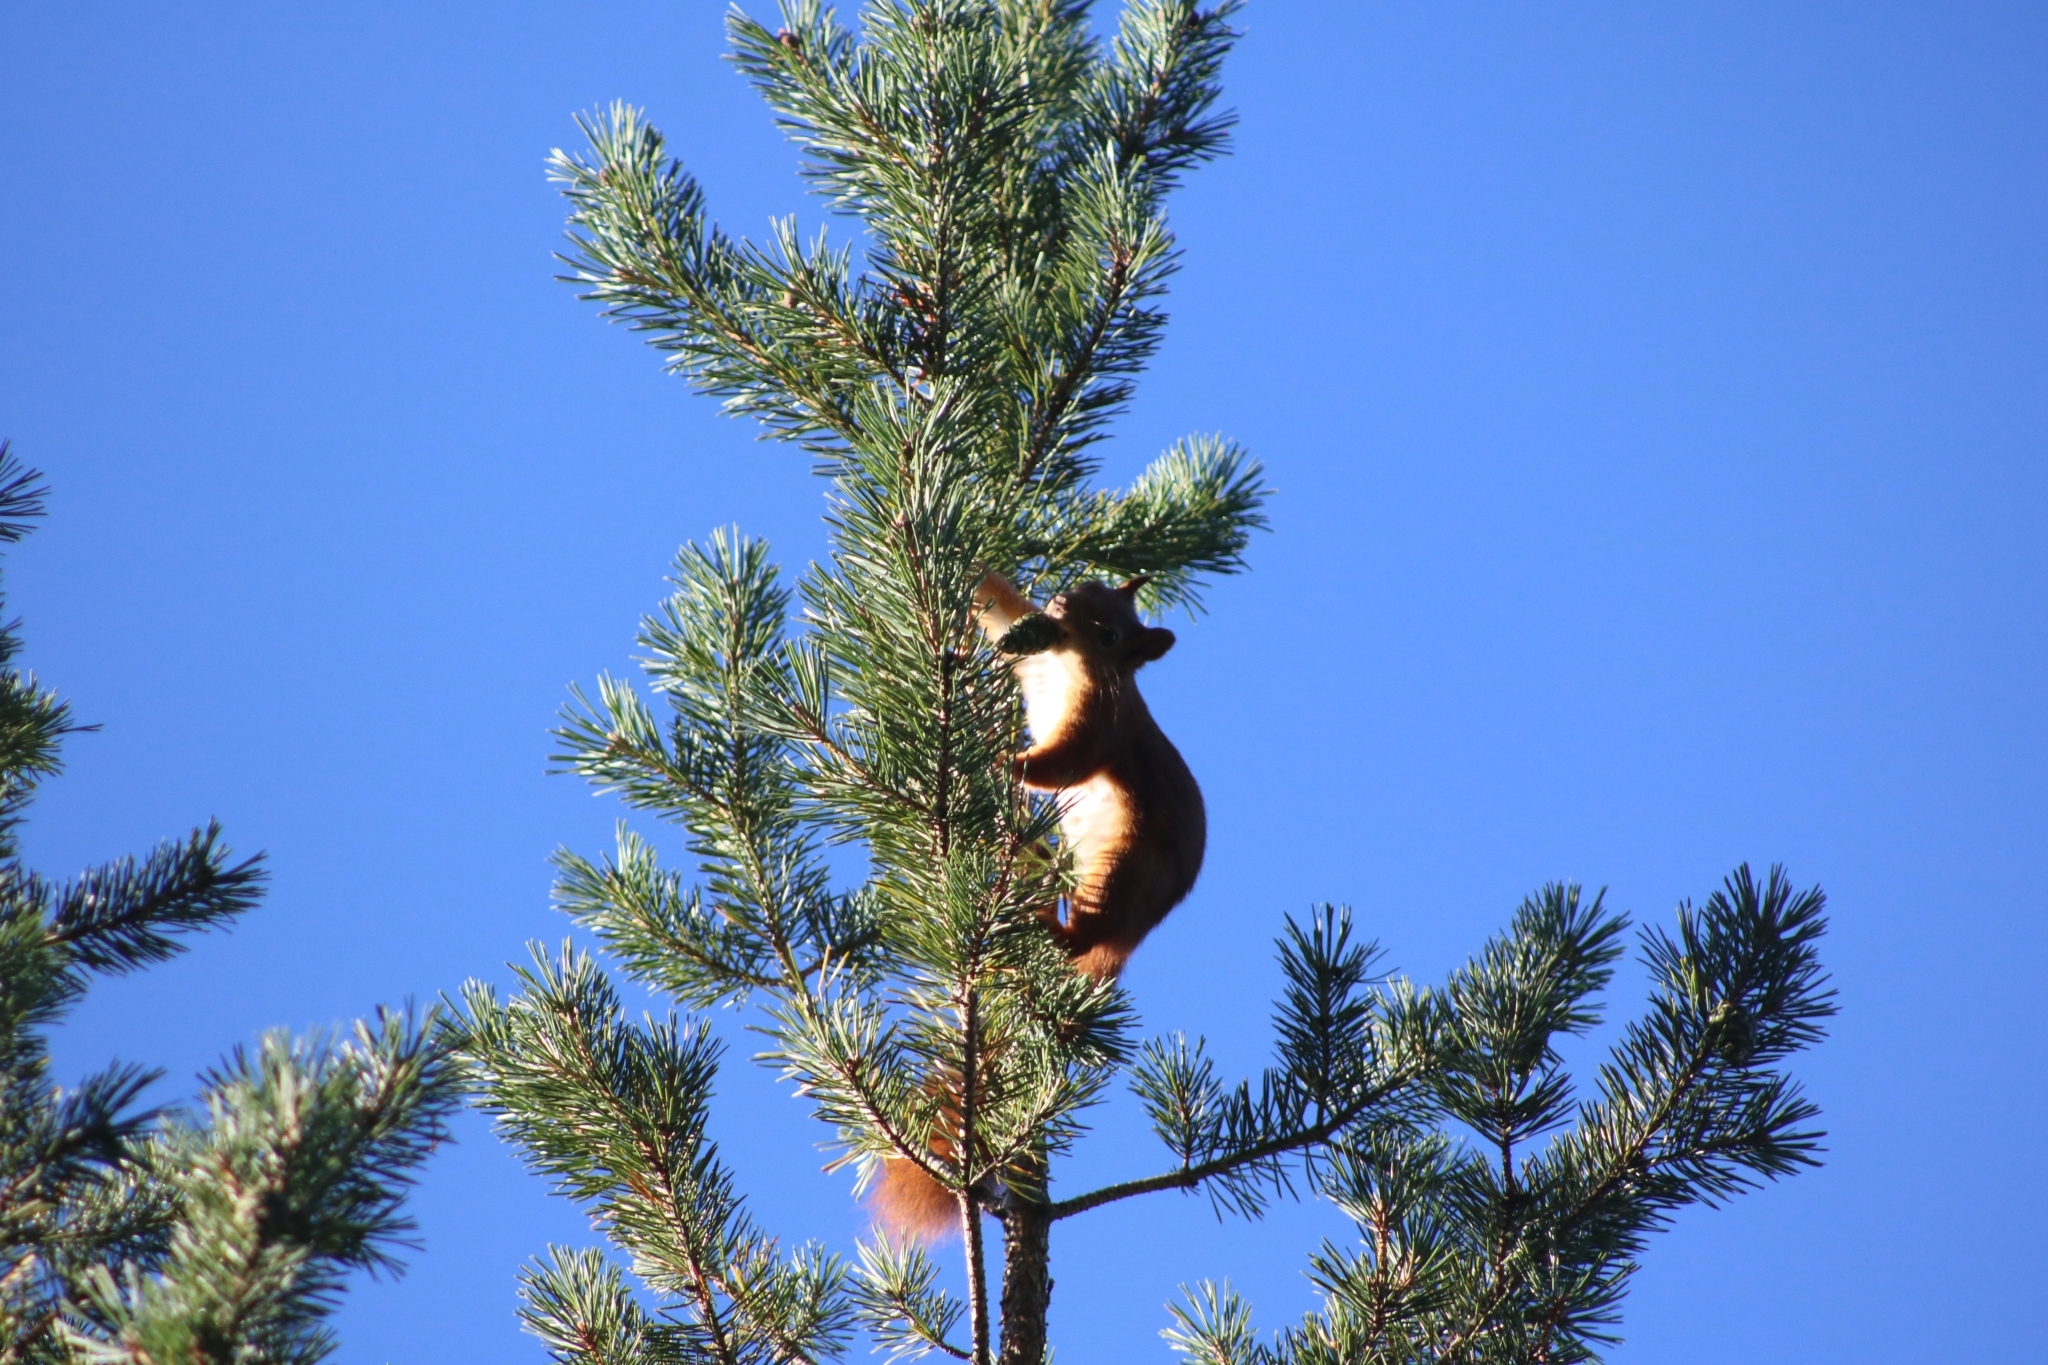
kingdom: Animalia
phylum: Chordata
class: Mammalia
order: Rodentia
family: Sciuridae
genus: Sciurus
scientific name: Sciurus vulgaris
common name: Eurasian red squirrel
